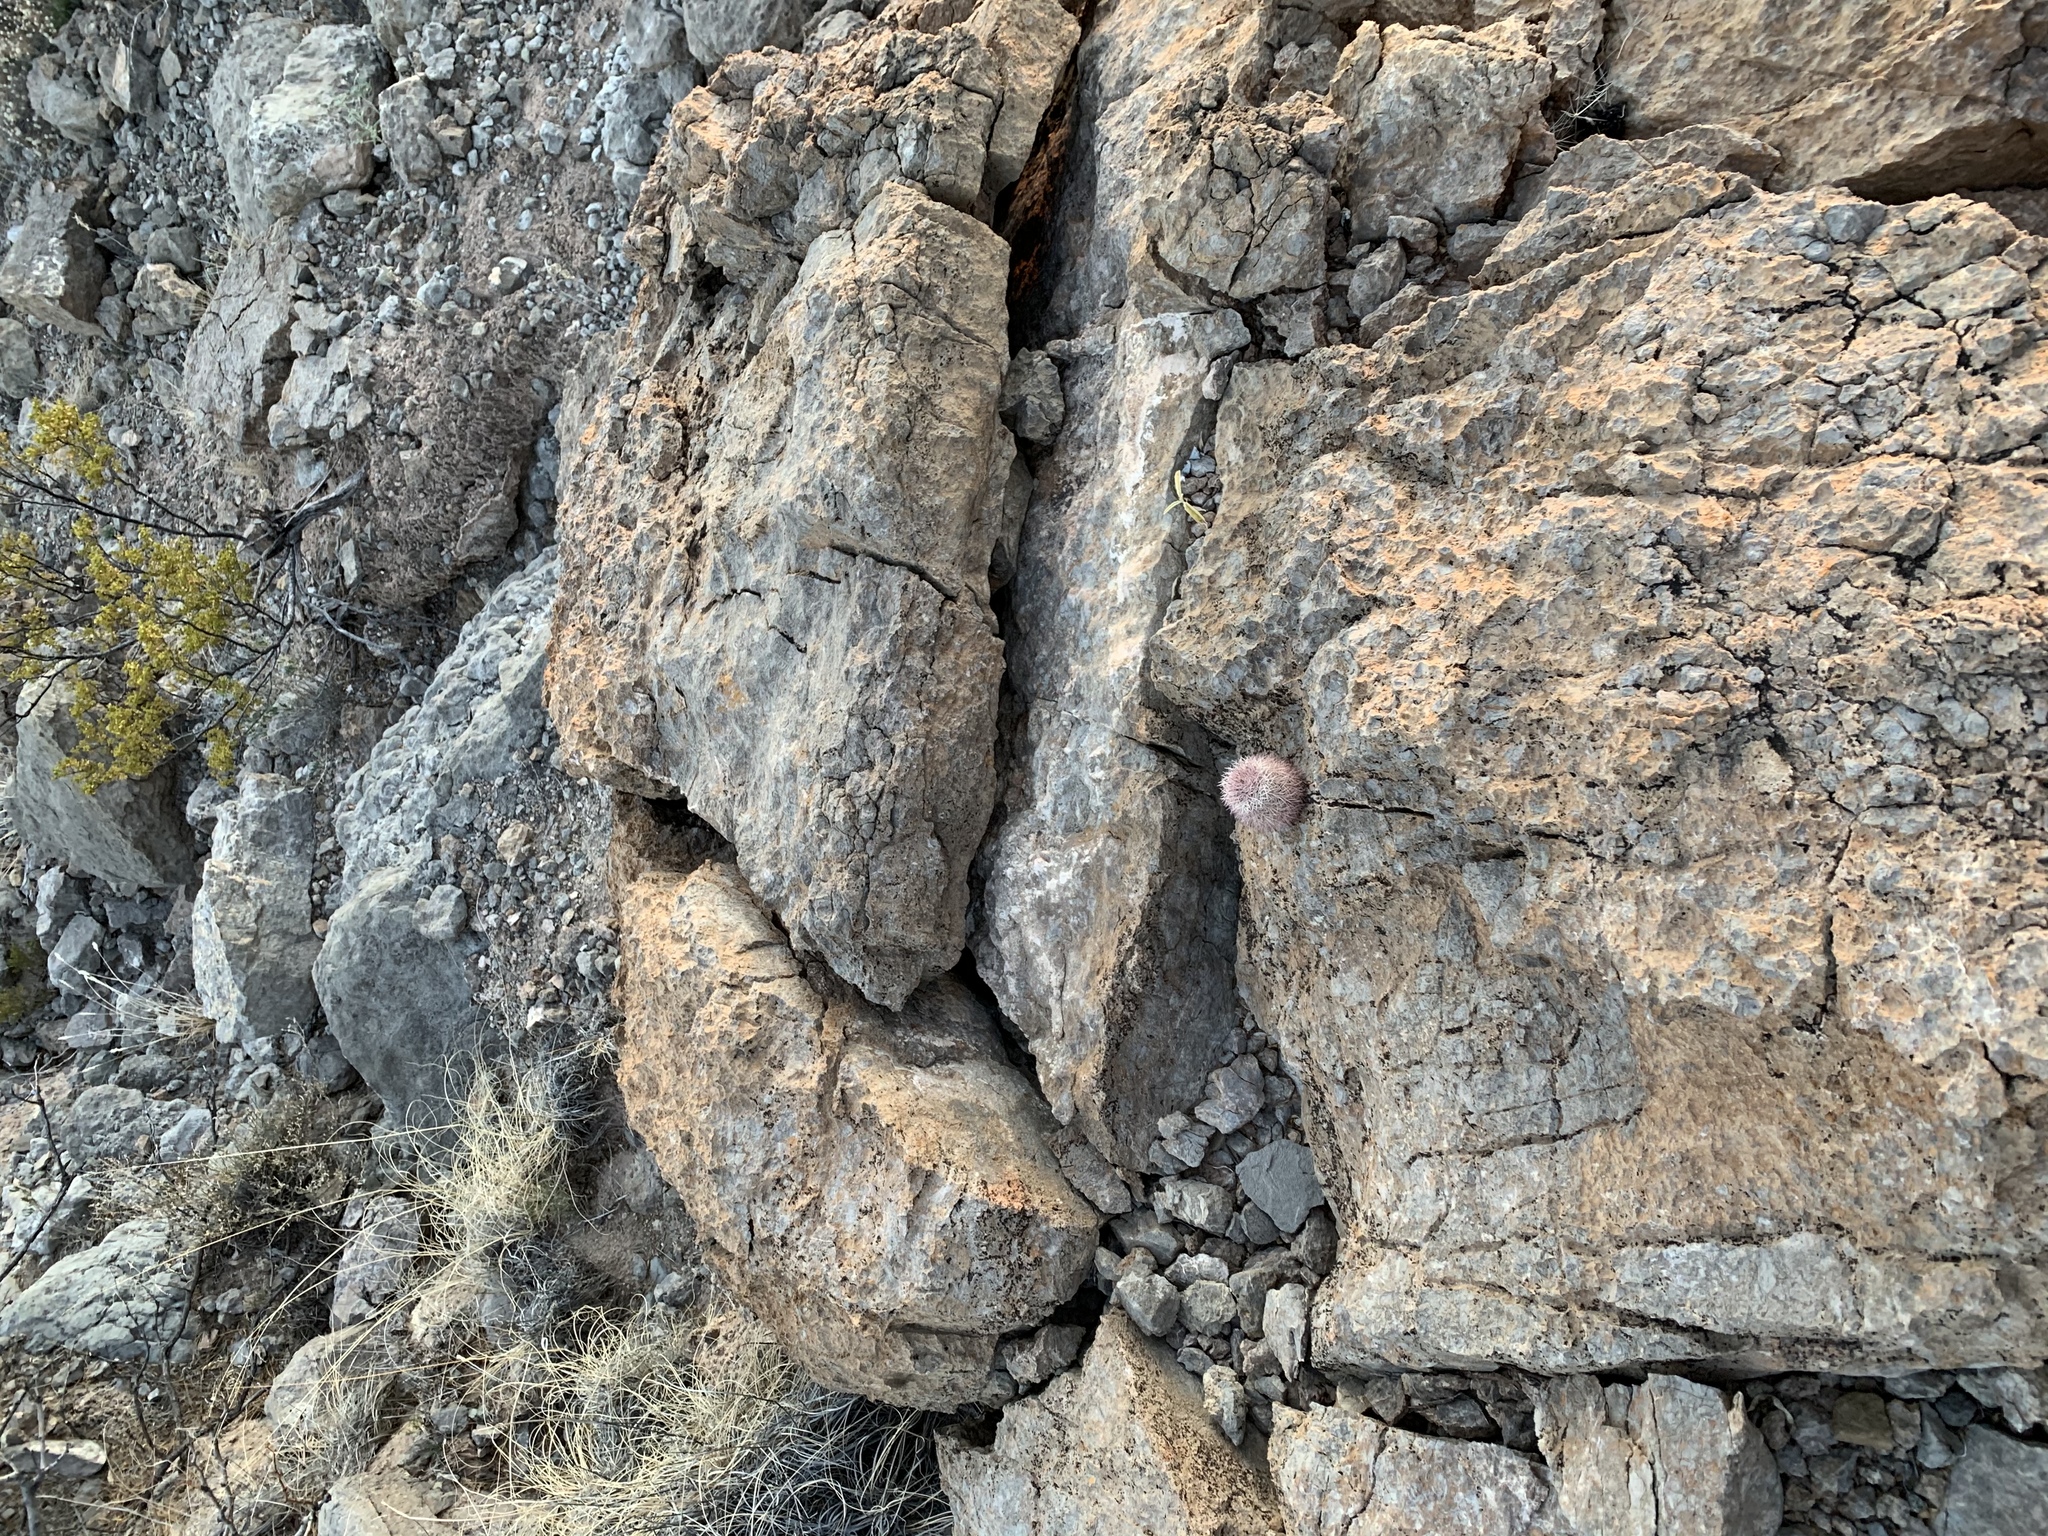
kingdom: Plantae
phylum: Tracheophyta
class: Magnoliopsida
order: Caryophyllales
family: Cactaceae
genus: Echinocereus
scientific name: Echinocereus dasyacanthus
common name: Spiny hedgehog cactus
